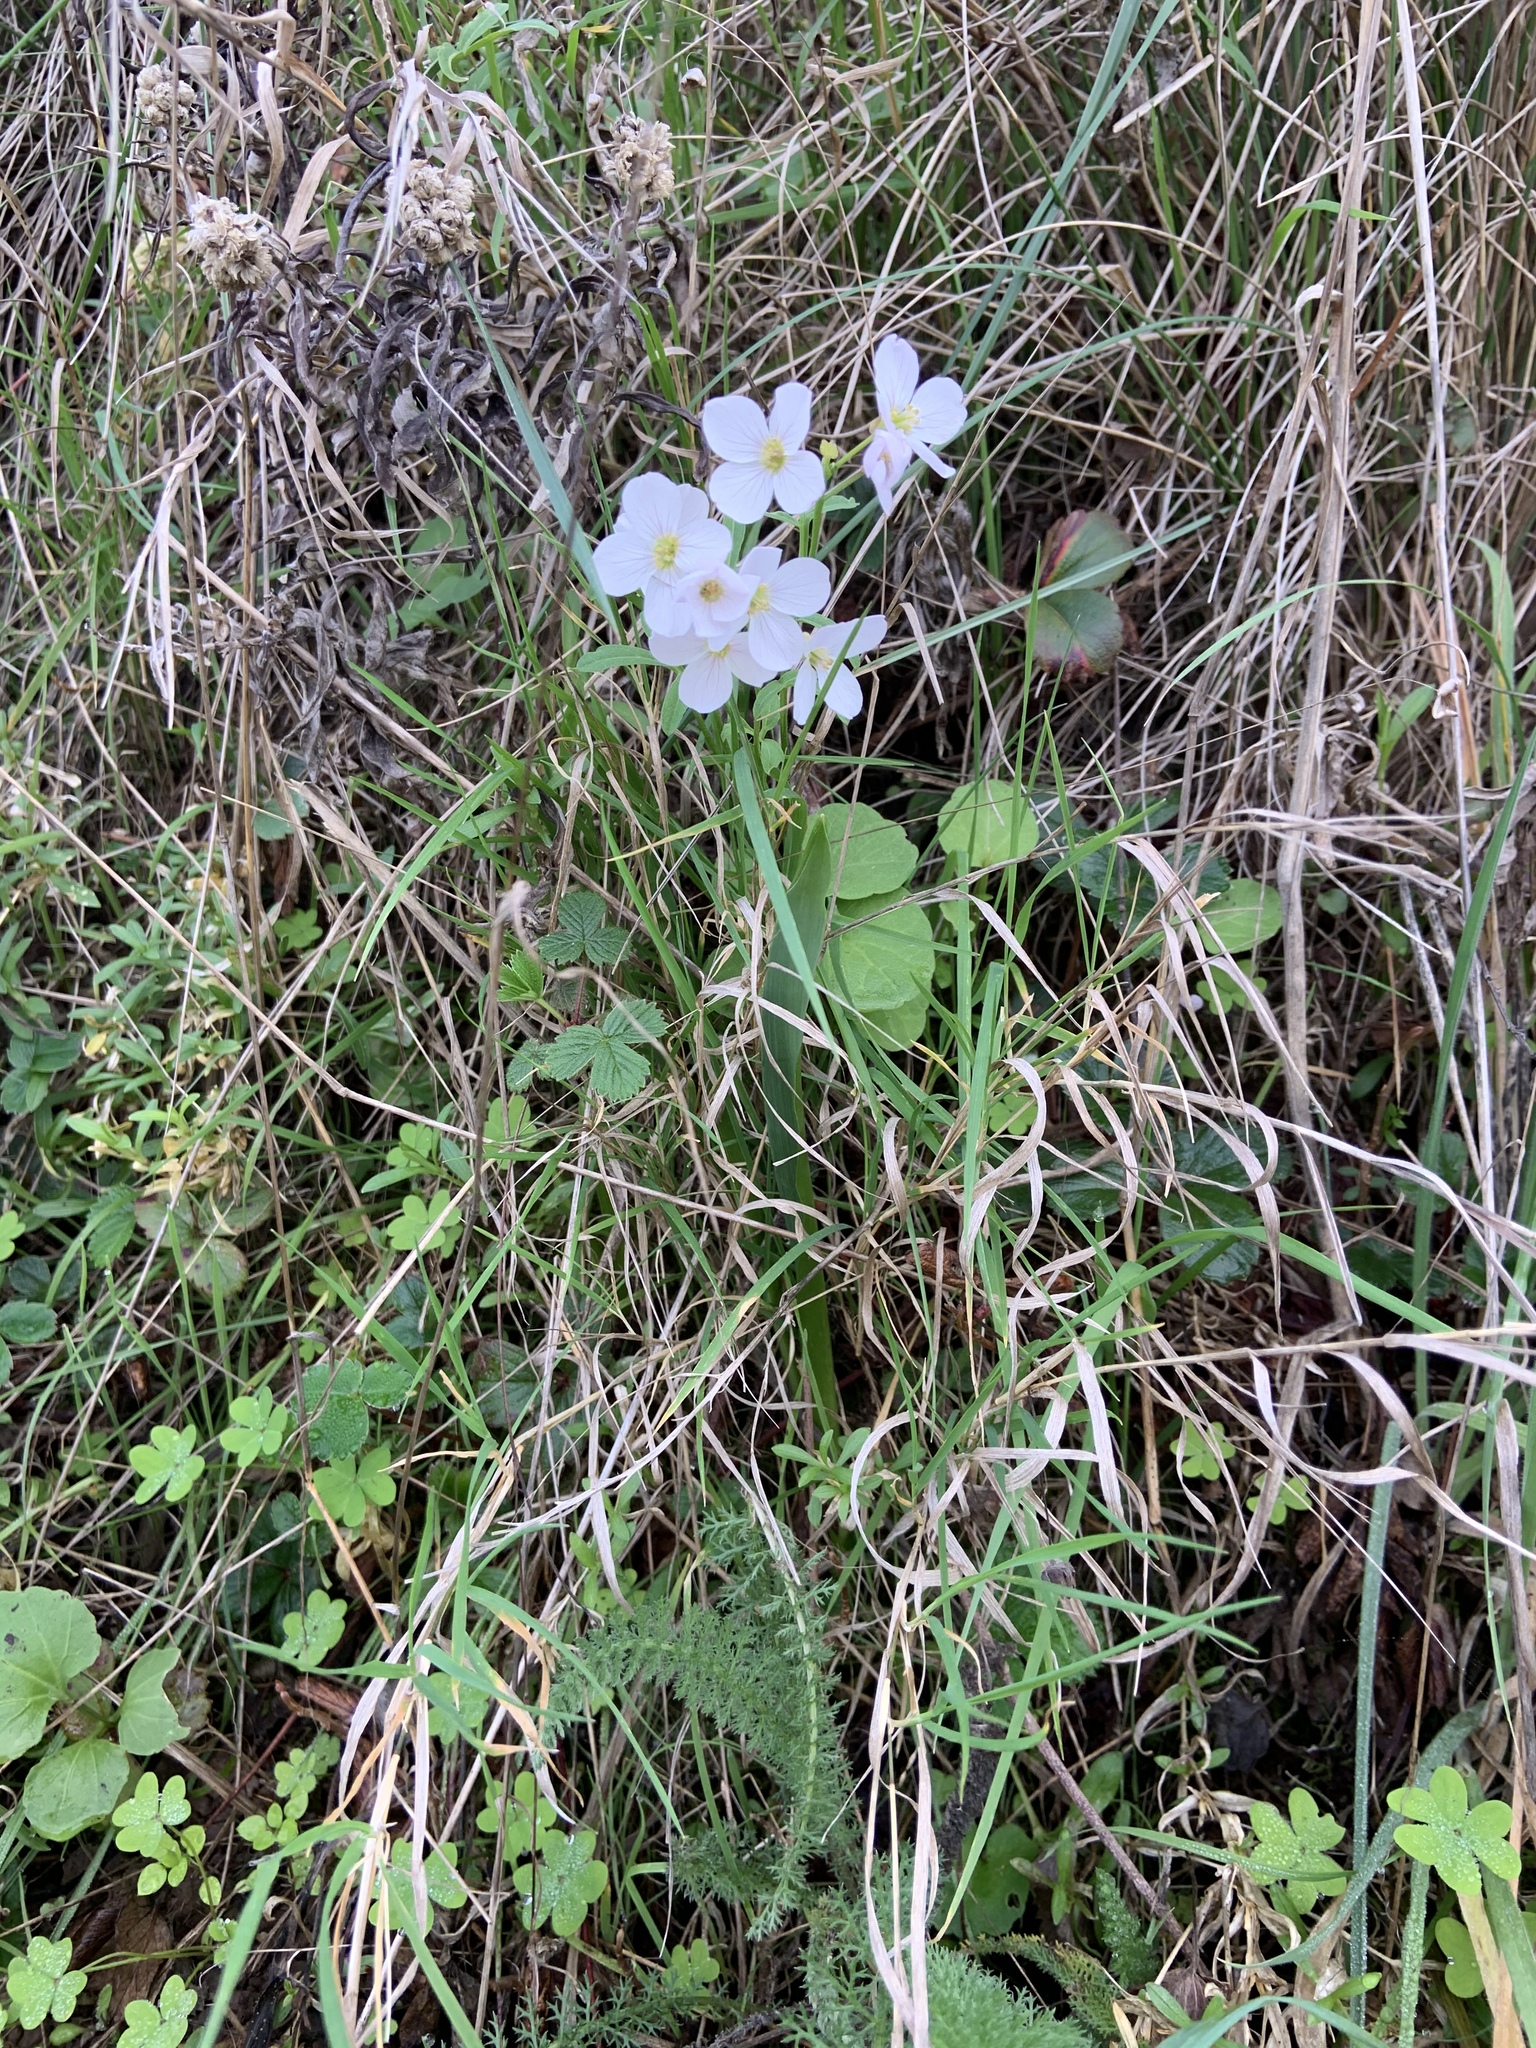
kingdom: Plantae
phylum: Tracheophyta
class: Magnoliopsida
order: Brassicales
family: Brassicaceae
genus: Cardamine
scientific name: Cardamine californica
